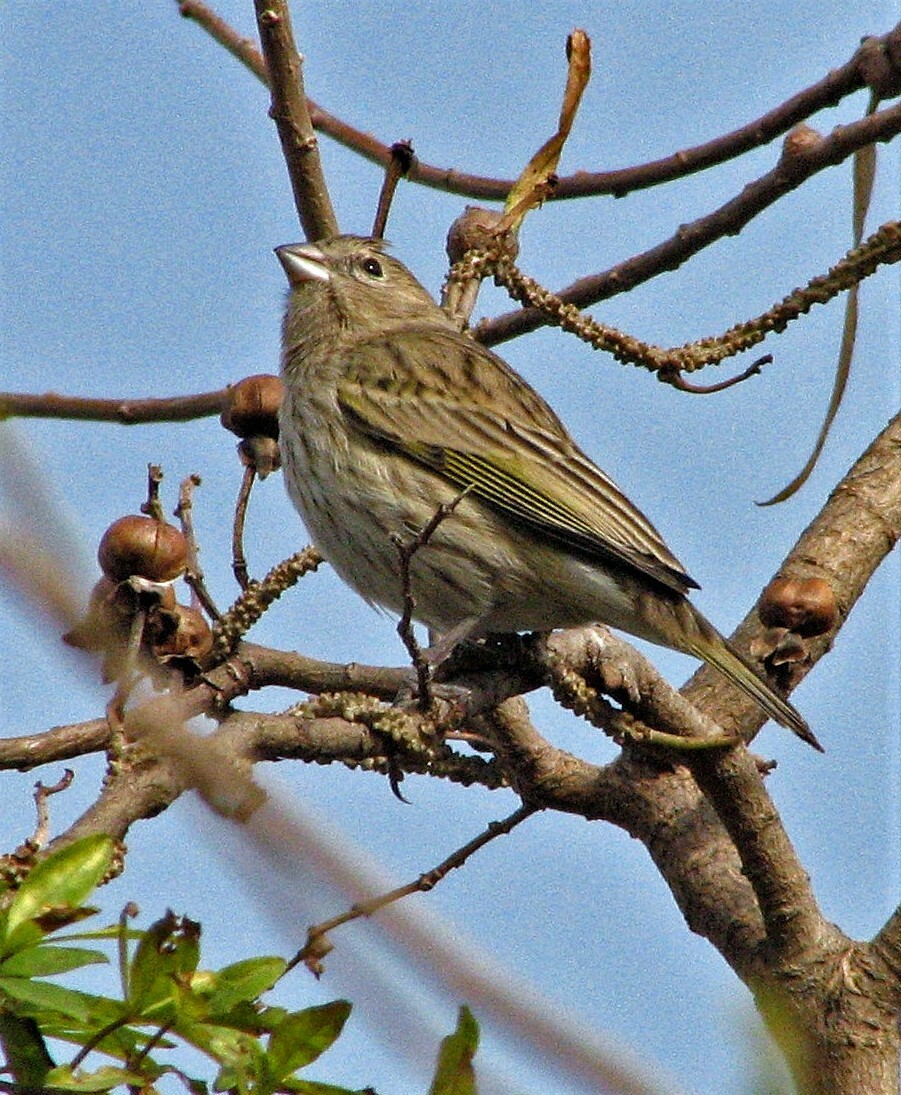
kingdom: Animalia
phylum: Chordata
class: Aves
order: Passeriformes
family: Thraupidae
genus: Sicalis
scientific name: Sicalis flaveola
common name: Saffron finch
